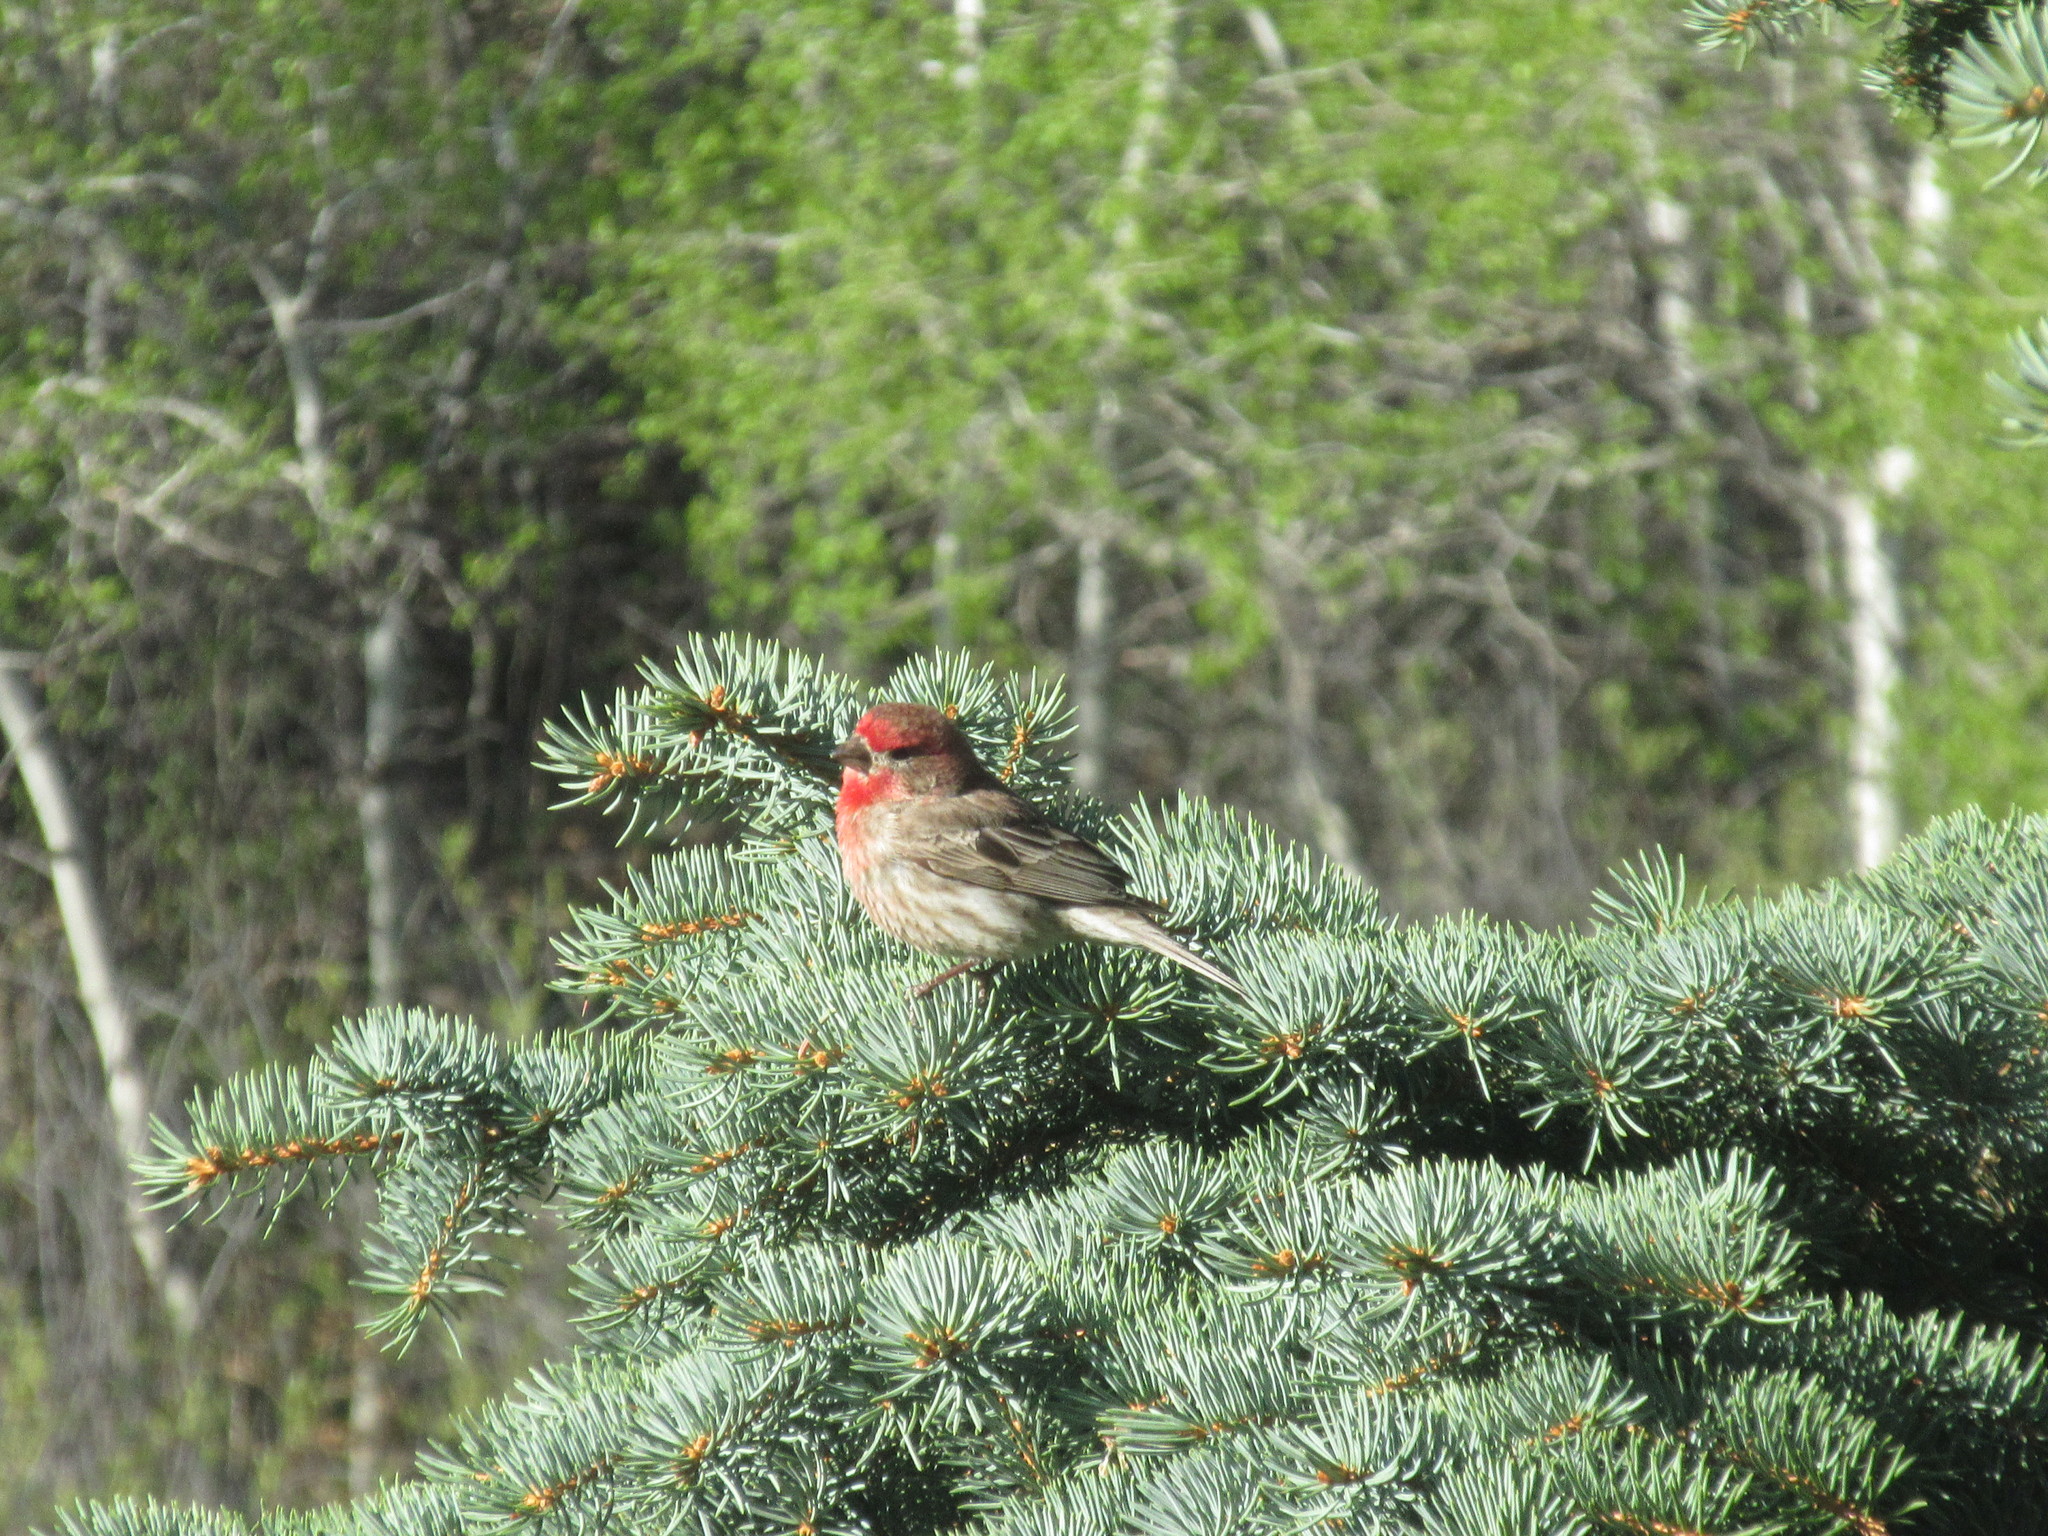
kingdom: Animalia
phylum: Chordata
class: Aves
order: Passeriformes
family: Fringillidae
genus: Haemorhous
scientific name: Haemorhous mexicanus
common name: House finch
